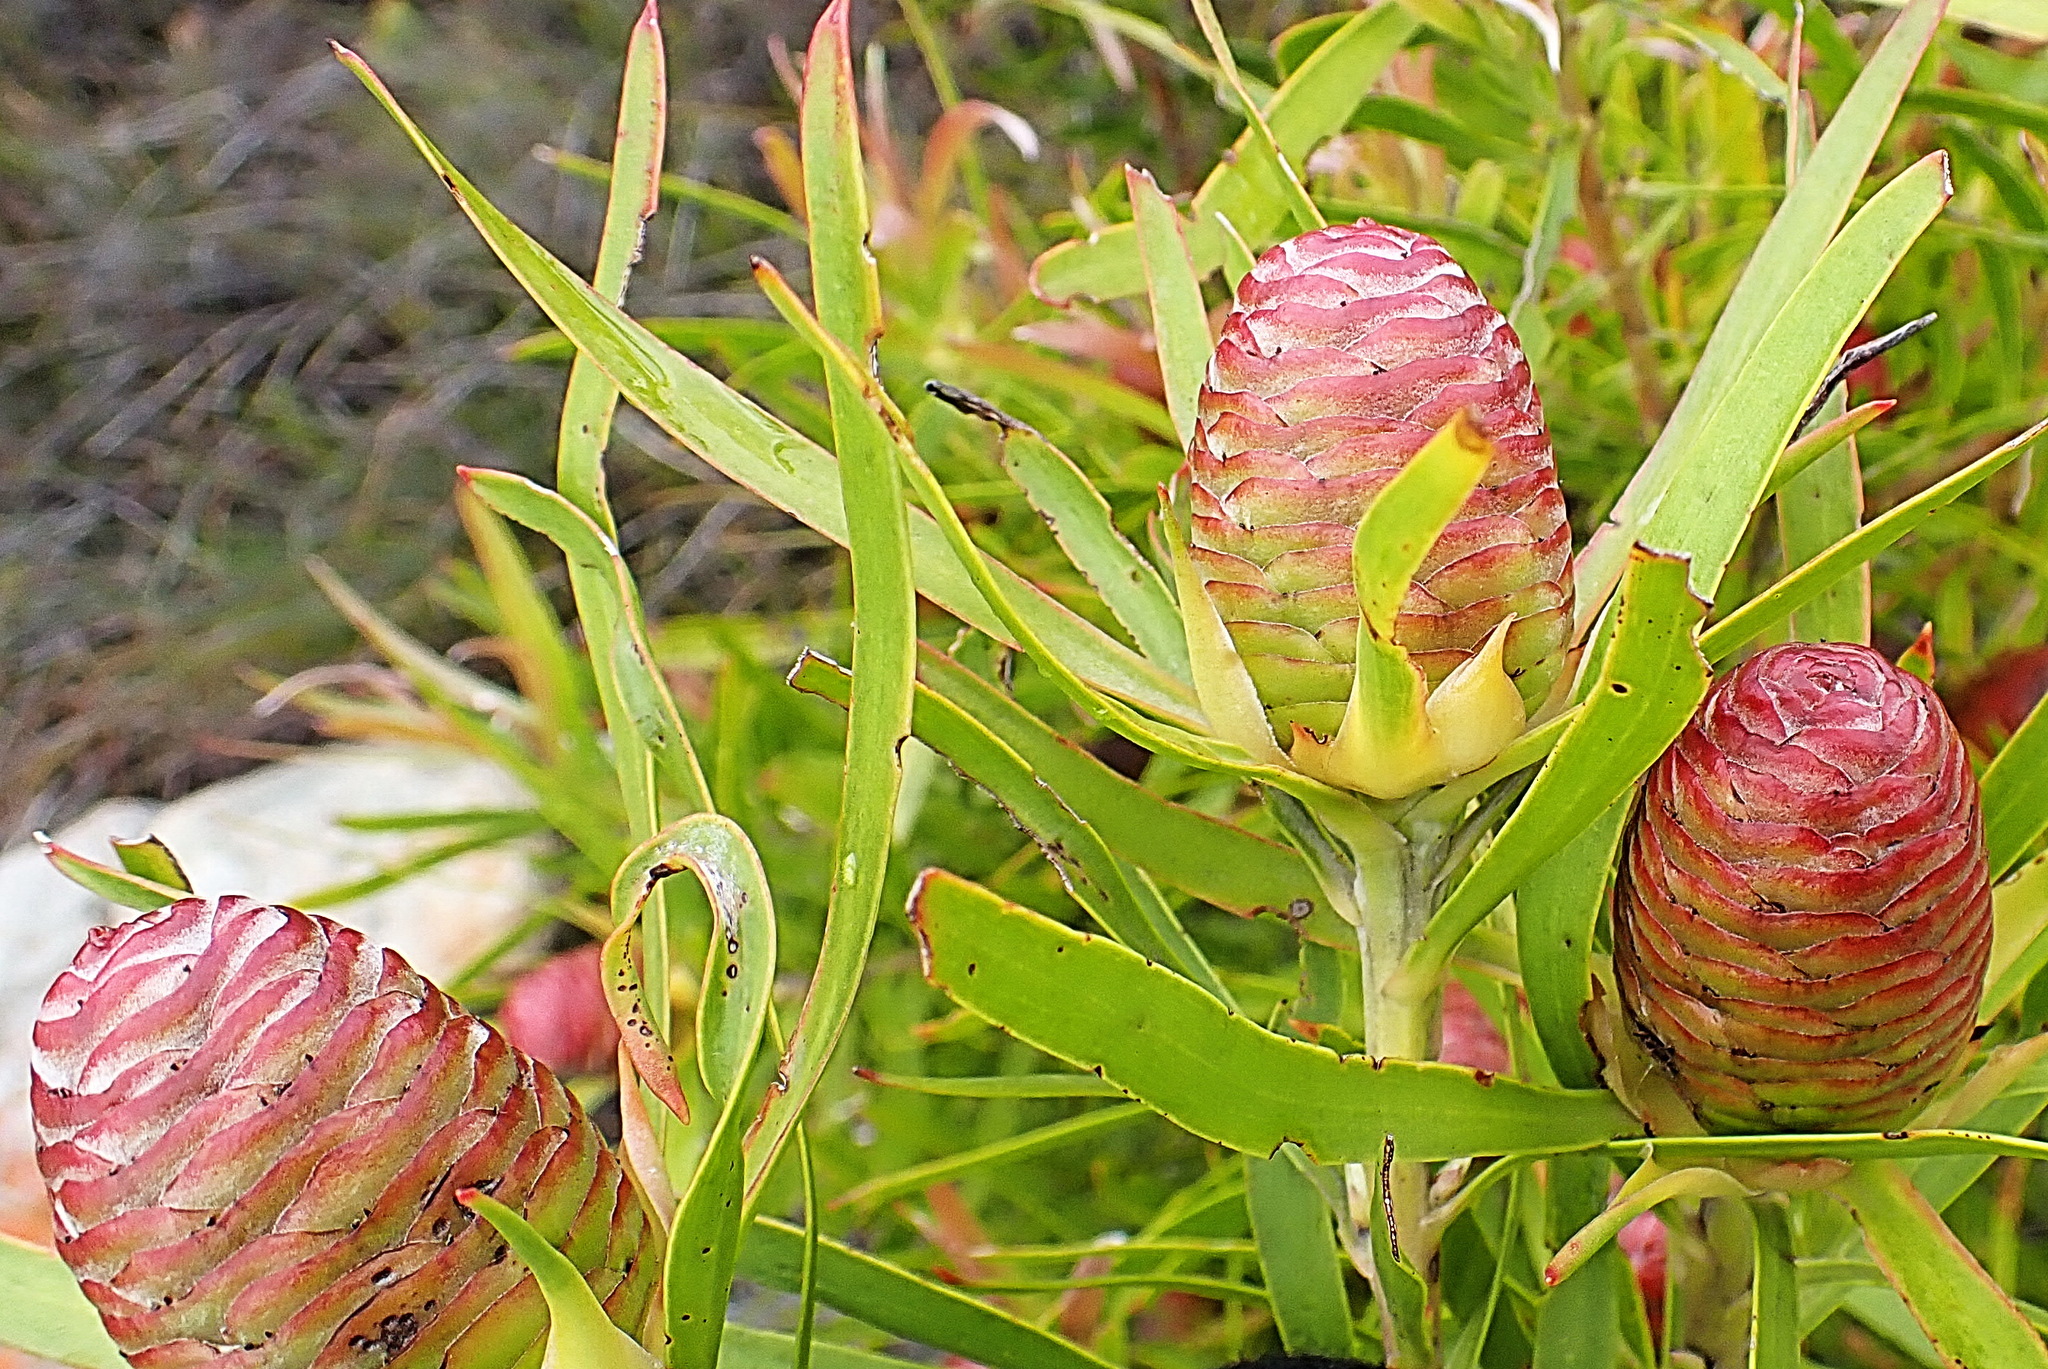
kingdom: Plantae
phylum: Tracheophyta
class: Magnoliopsida
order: Proteales
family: Proteaceae
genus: Leucadendron
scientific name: Leucadendron eucalyptifolium
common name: Gum-leaved conebush
